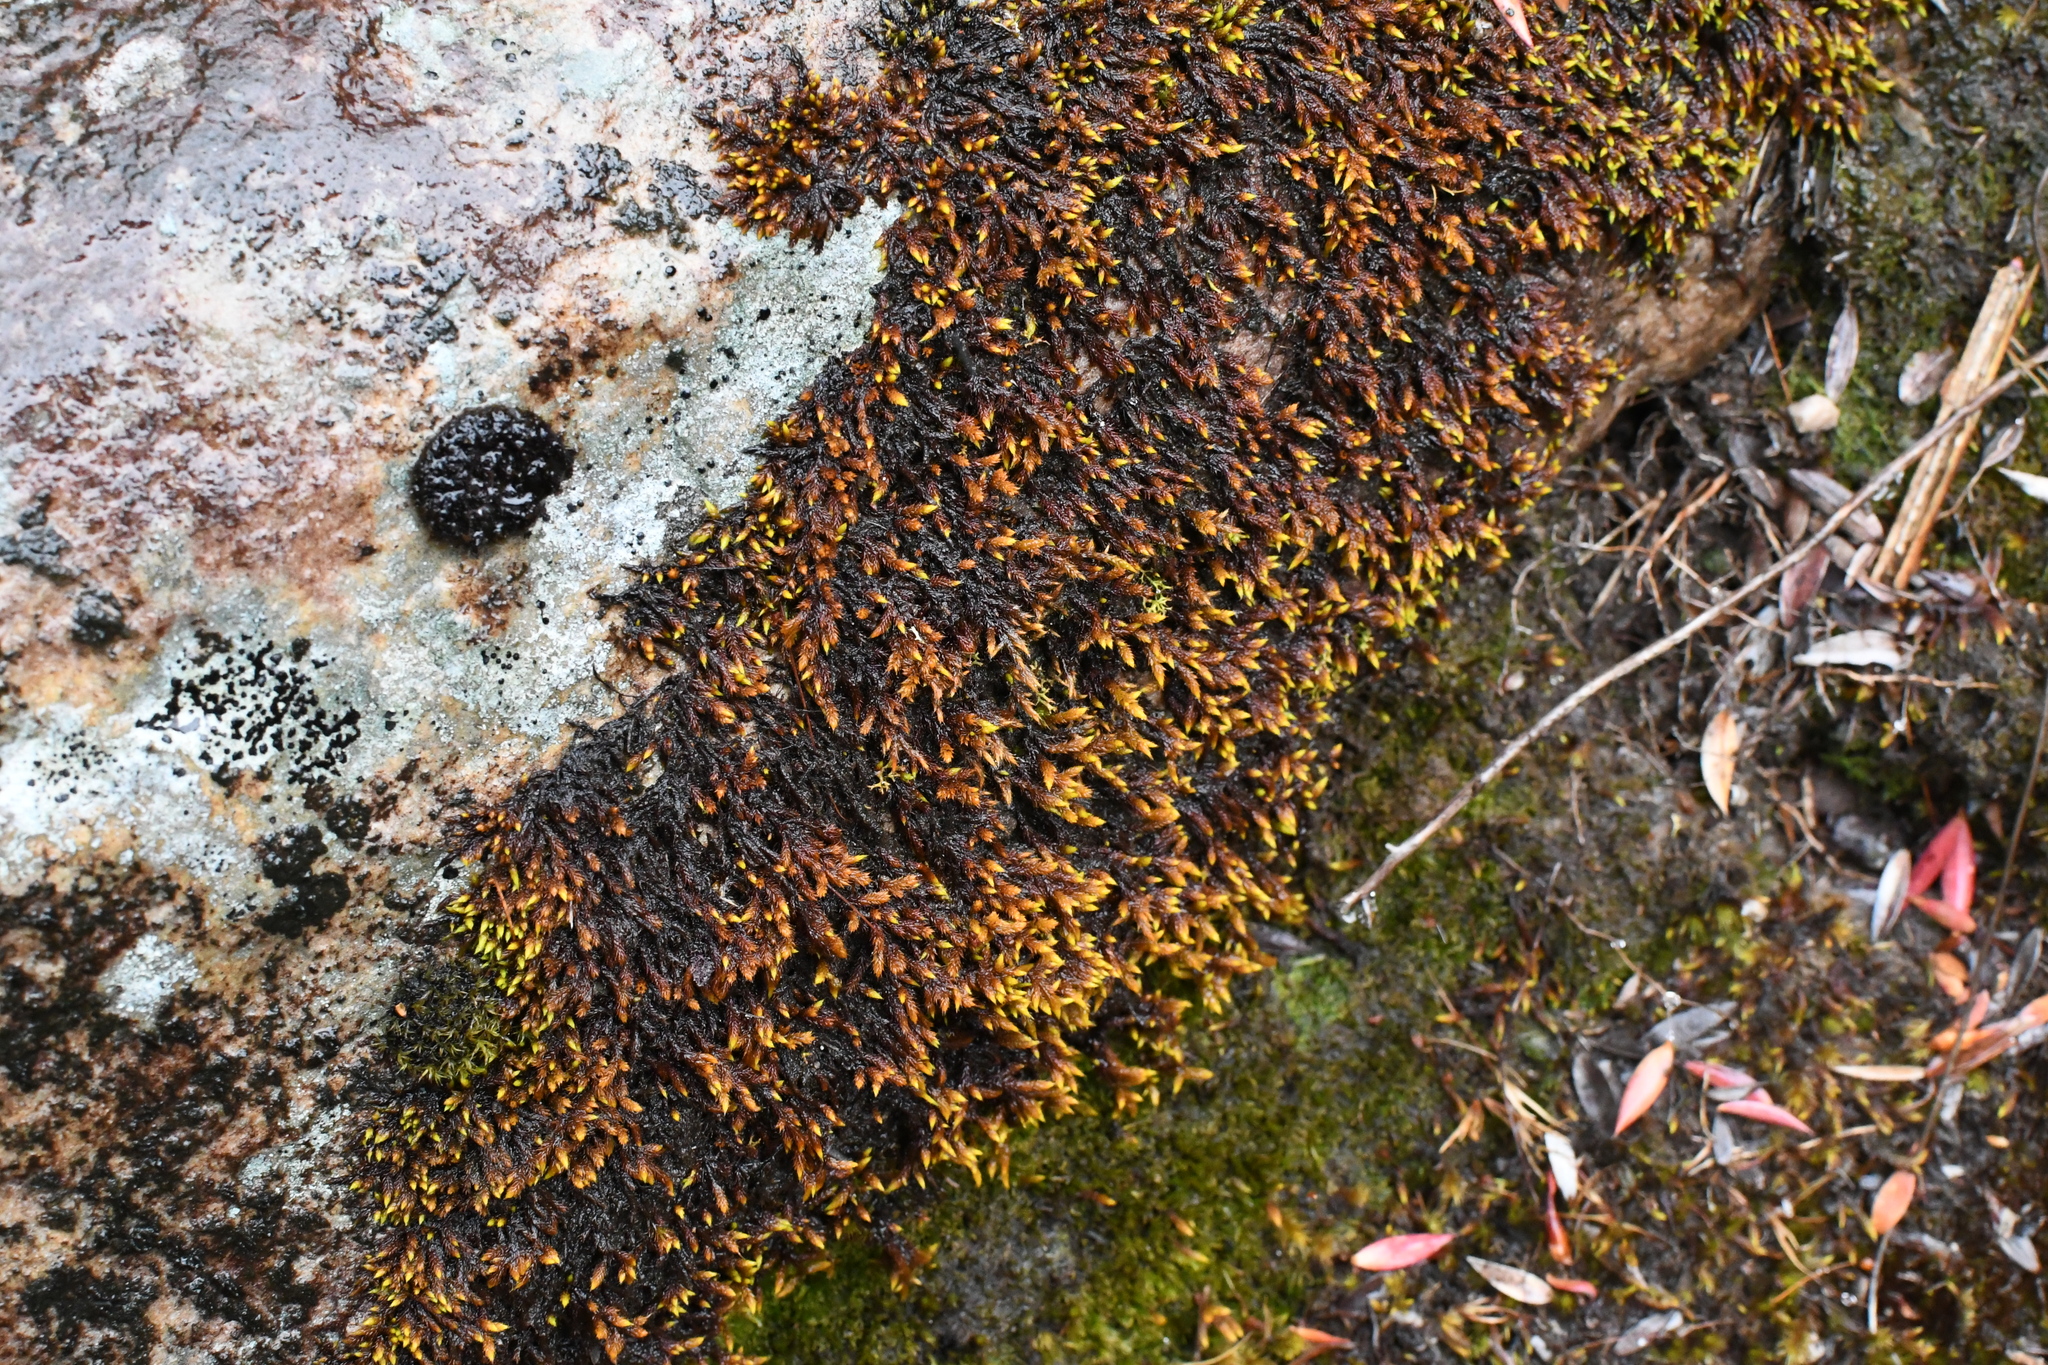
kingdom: Plantae
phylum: Bryophyta
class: Bryopsida
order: Hedwigiales
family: Hedwigiaceae
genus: Rhacocarpus
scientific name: Rhacocarpus purpurascens
